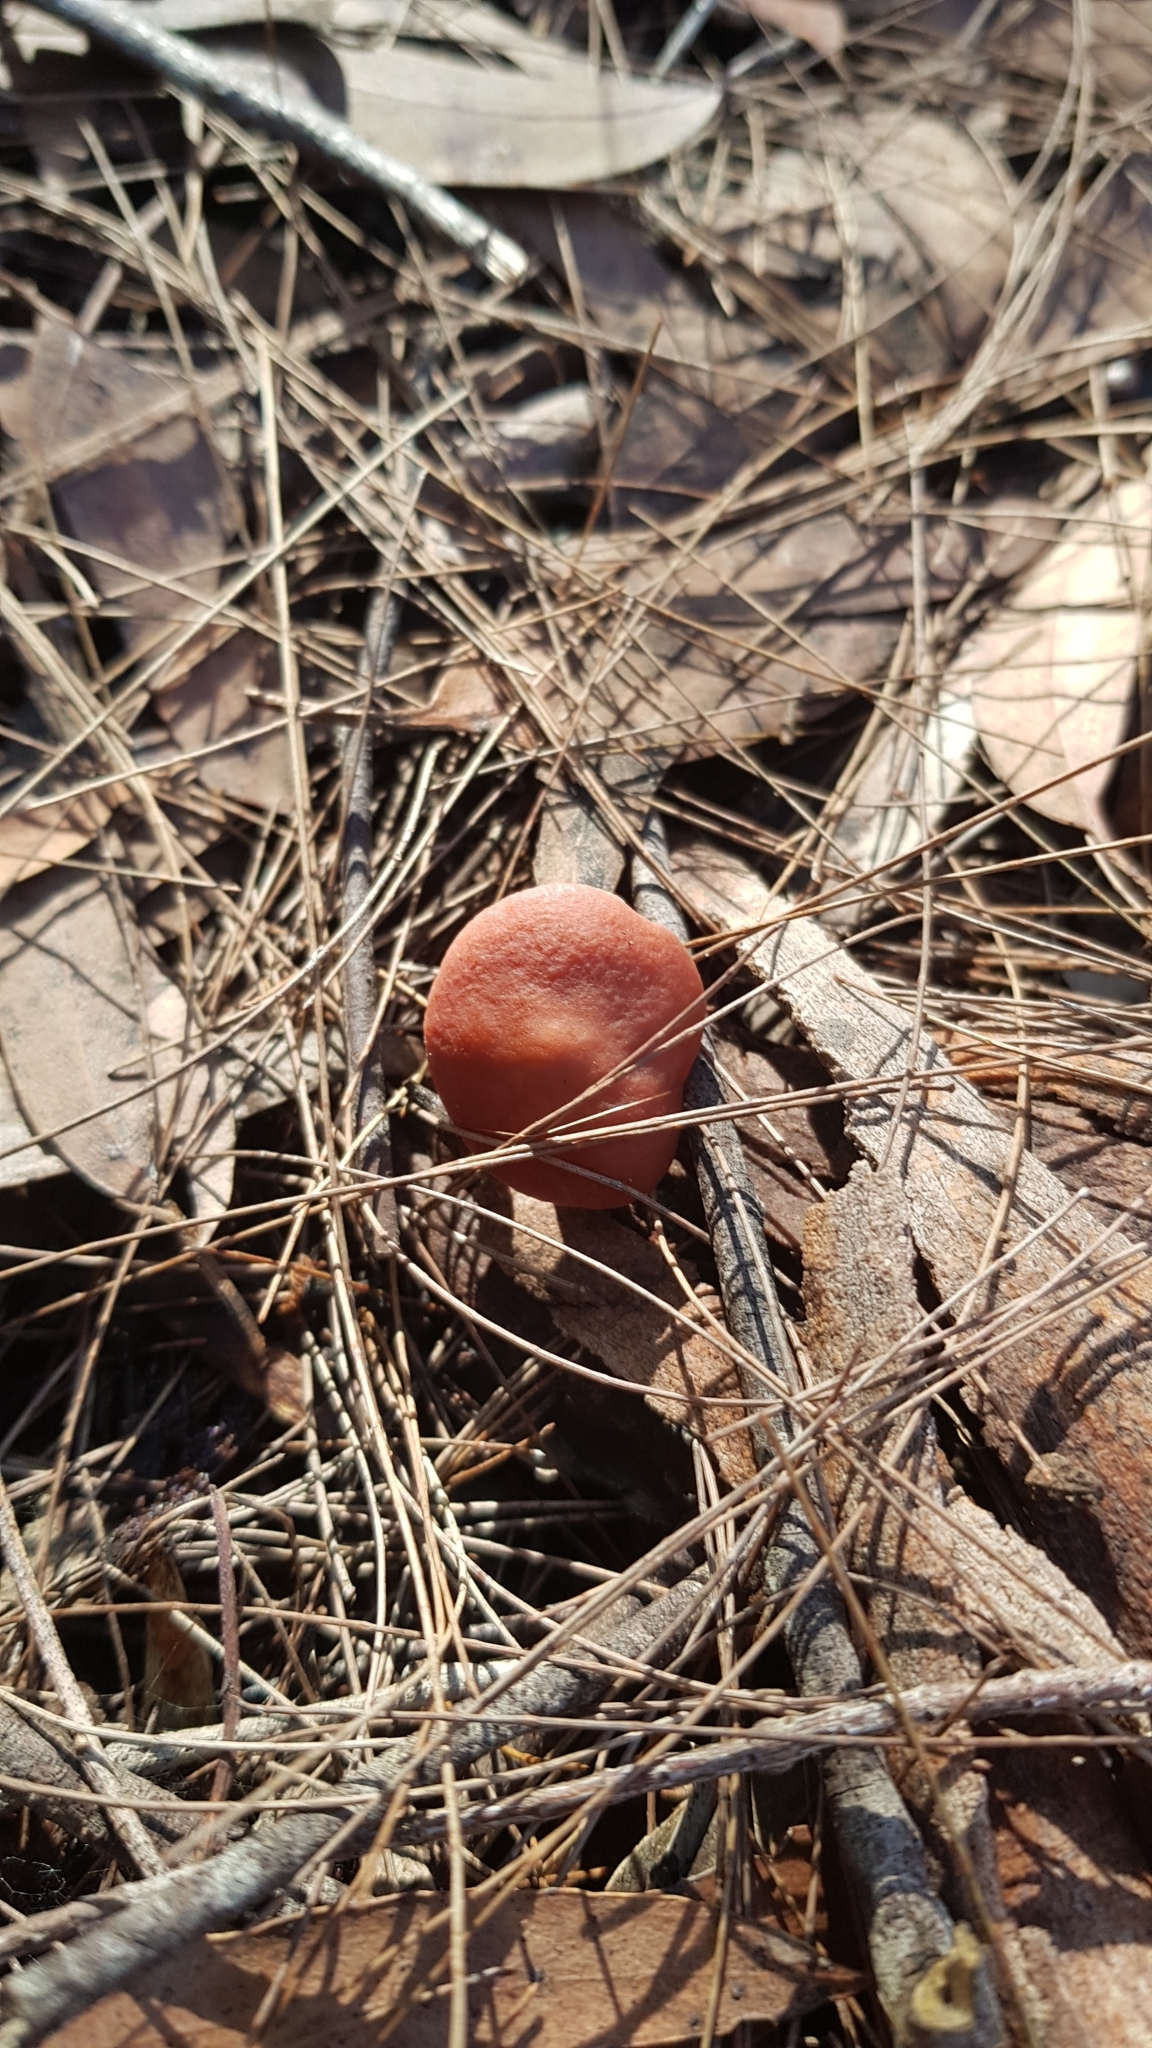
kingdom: Fungi
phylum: Basidiomycota
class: Agaricomycetes
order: Russulales
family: Russulaceae
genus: Lactarius
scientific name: Lactarius eucalypti
